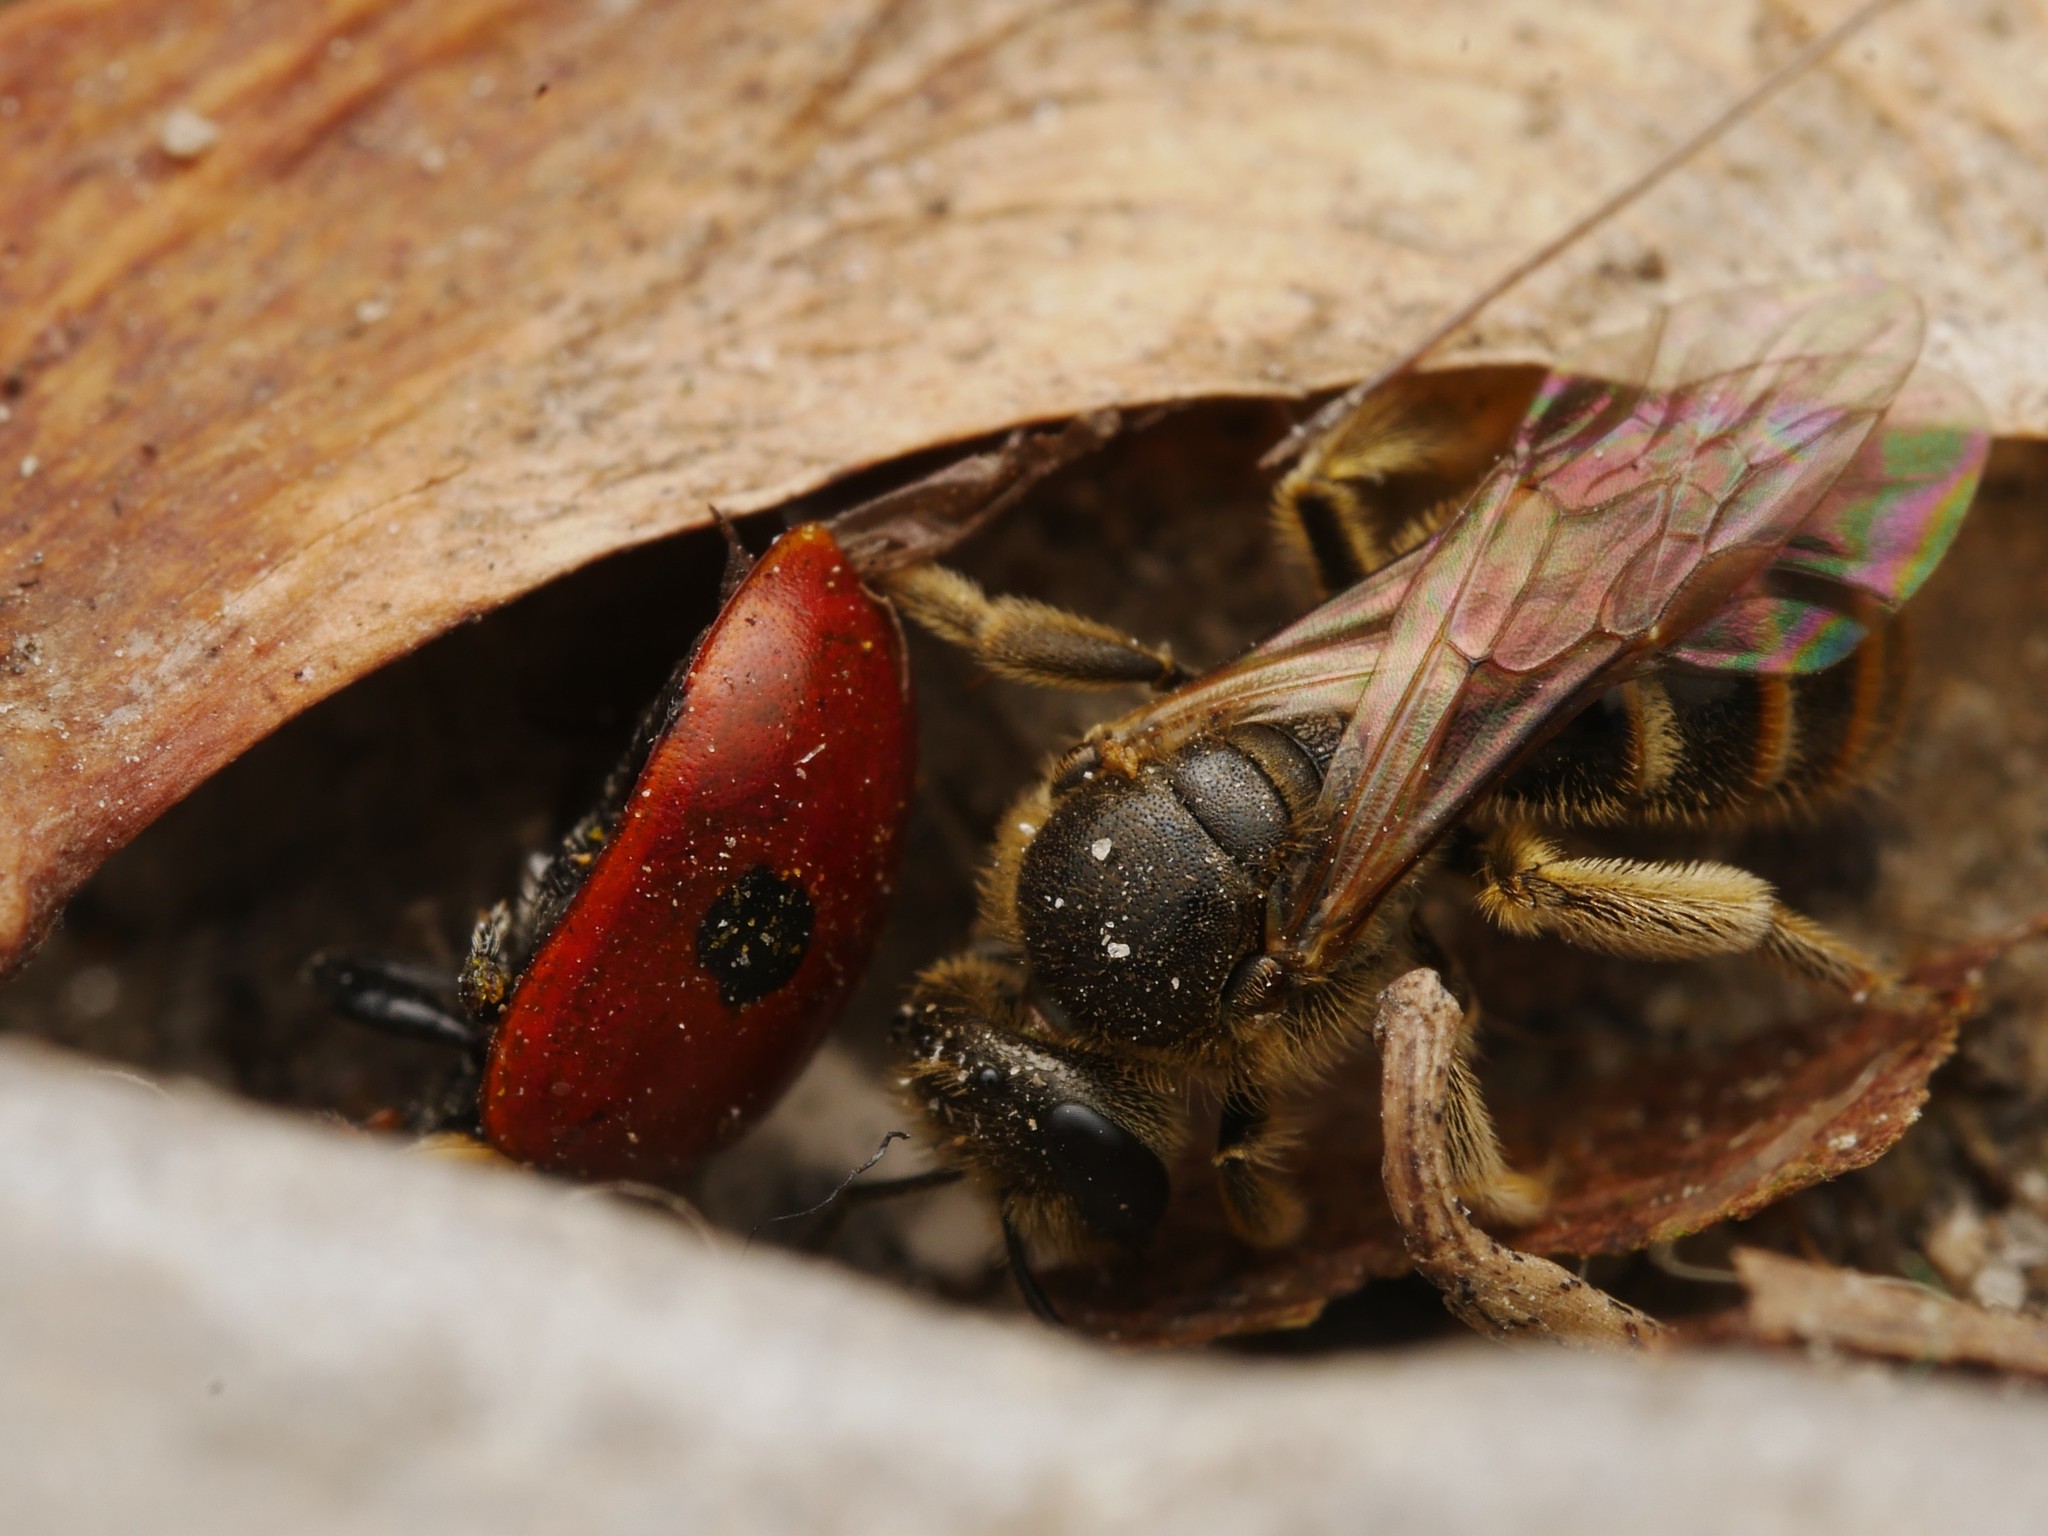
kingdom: Animalia
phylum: Arthropoda
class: Insecta
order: Coleoptera
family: Coccinellidae
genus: Adalia
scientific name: Adalia bipunctata
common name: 2-spot ladybird
